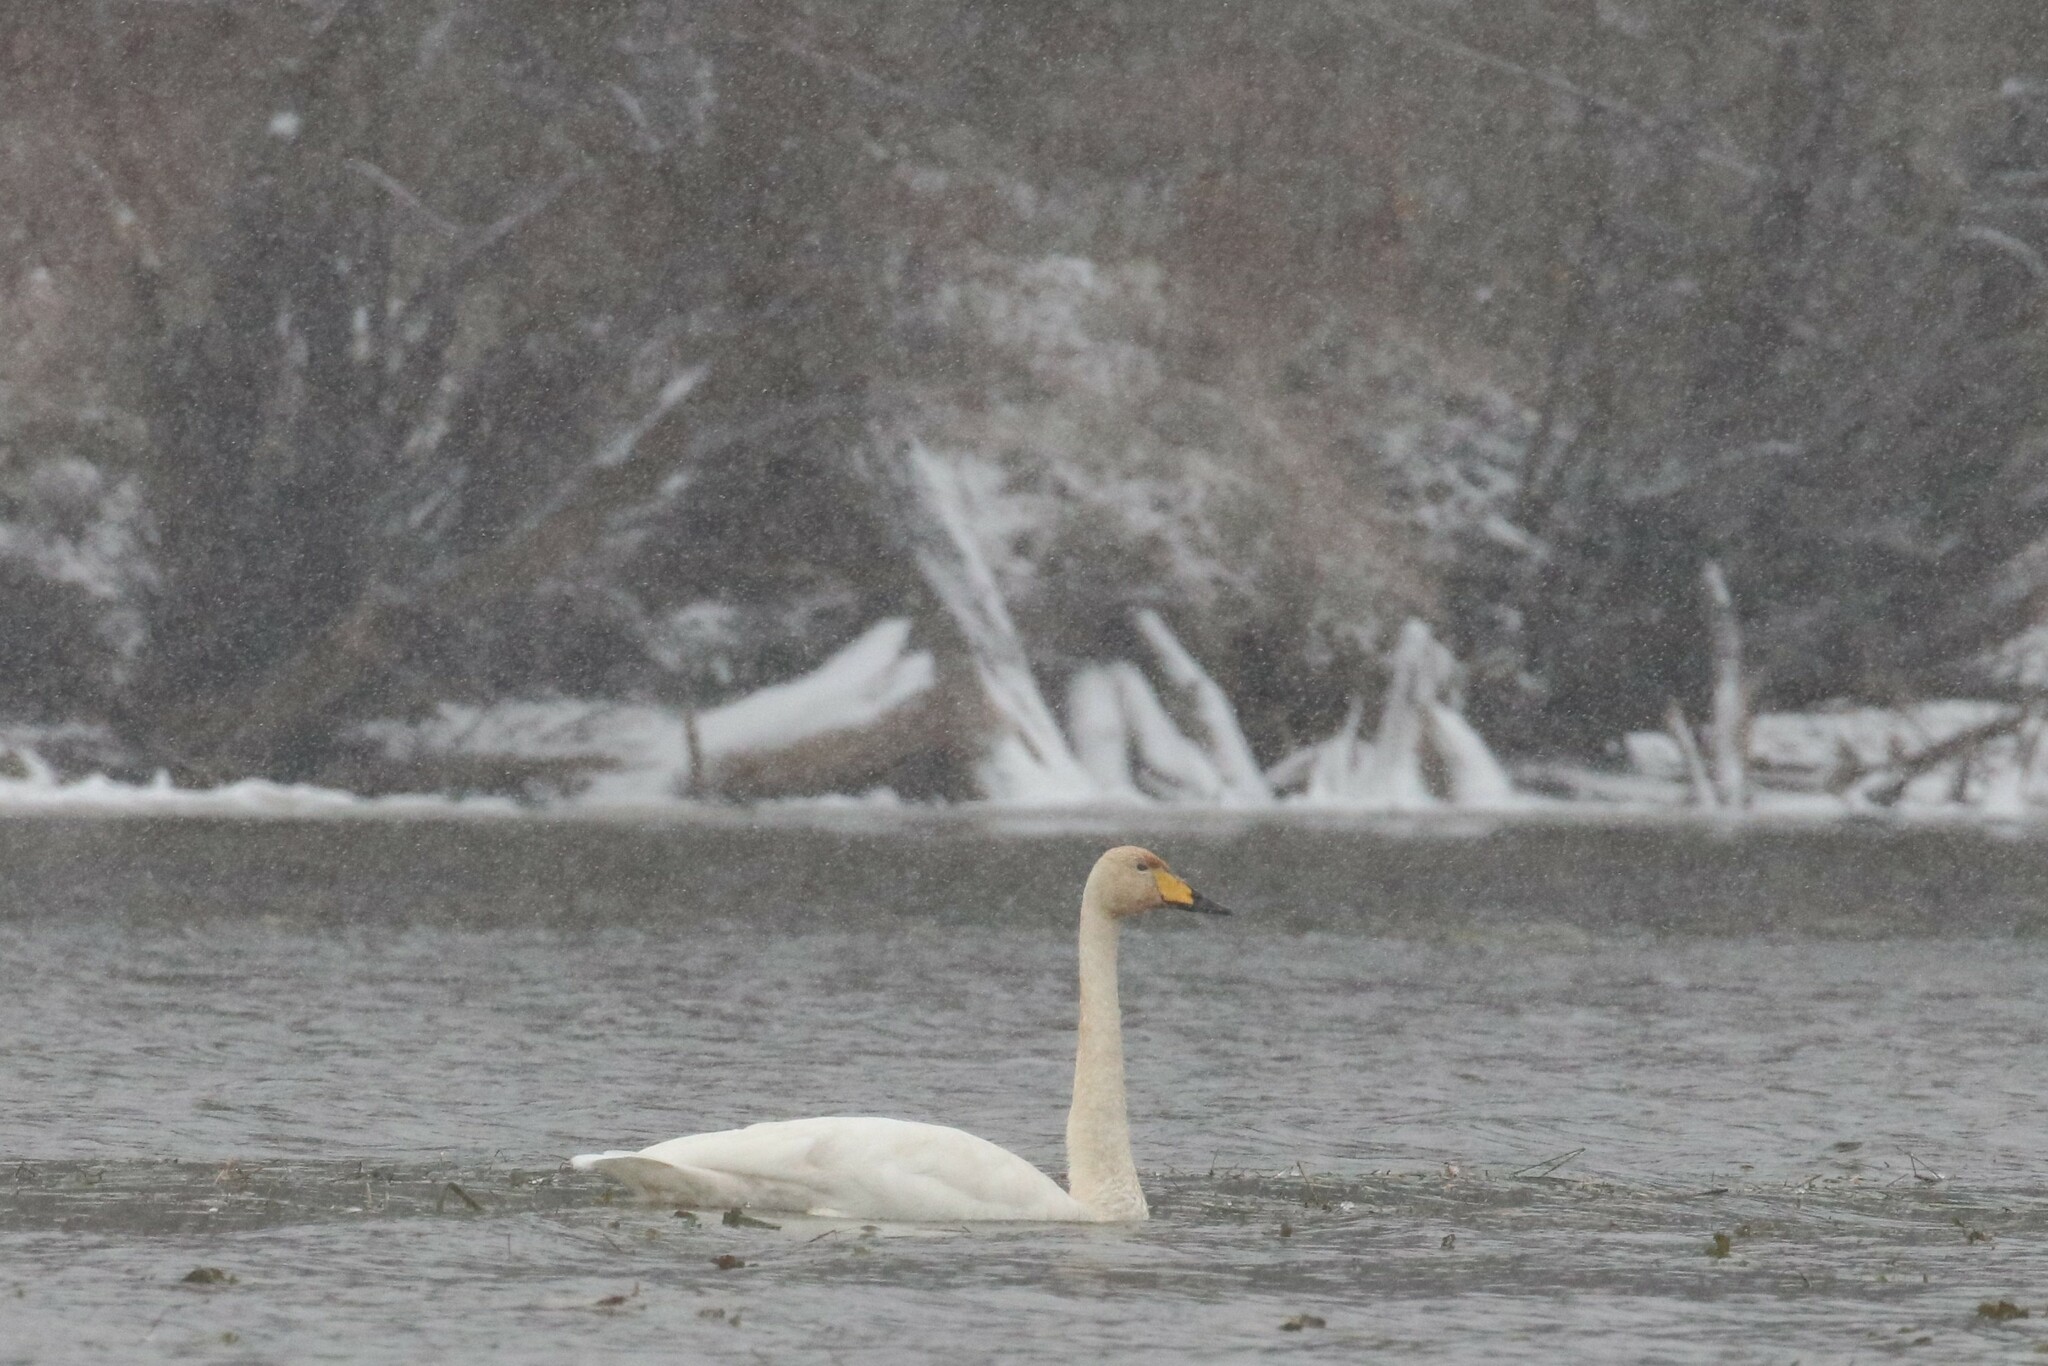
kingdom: Animalia
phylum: Chordata
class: Aves
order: Anseriformes
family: Anatidae
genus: Cygnus
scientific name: Cygnus cygnus
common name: Whooper swan
